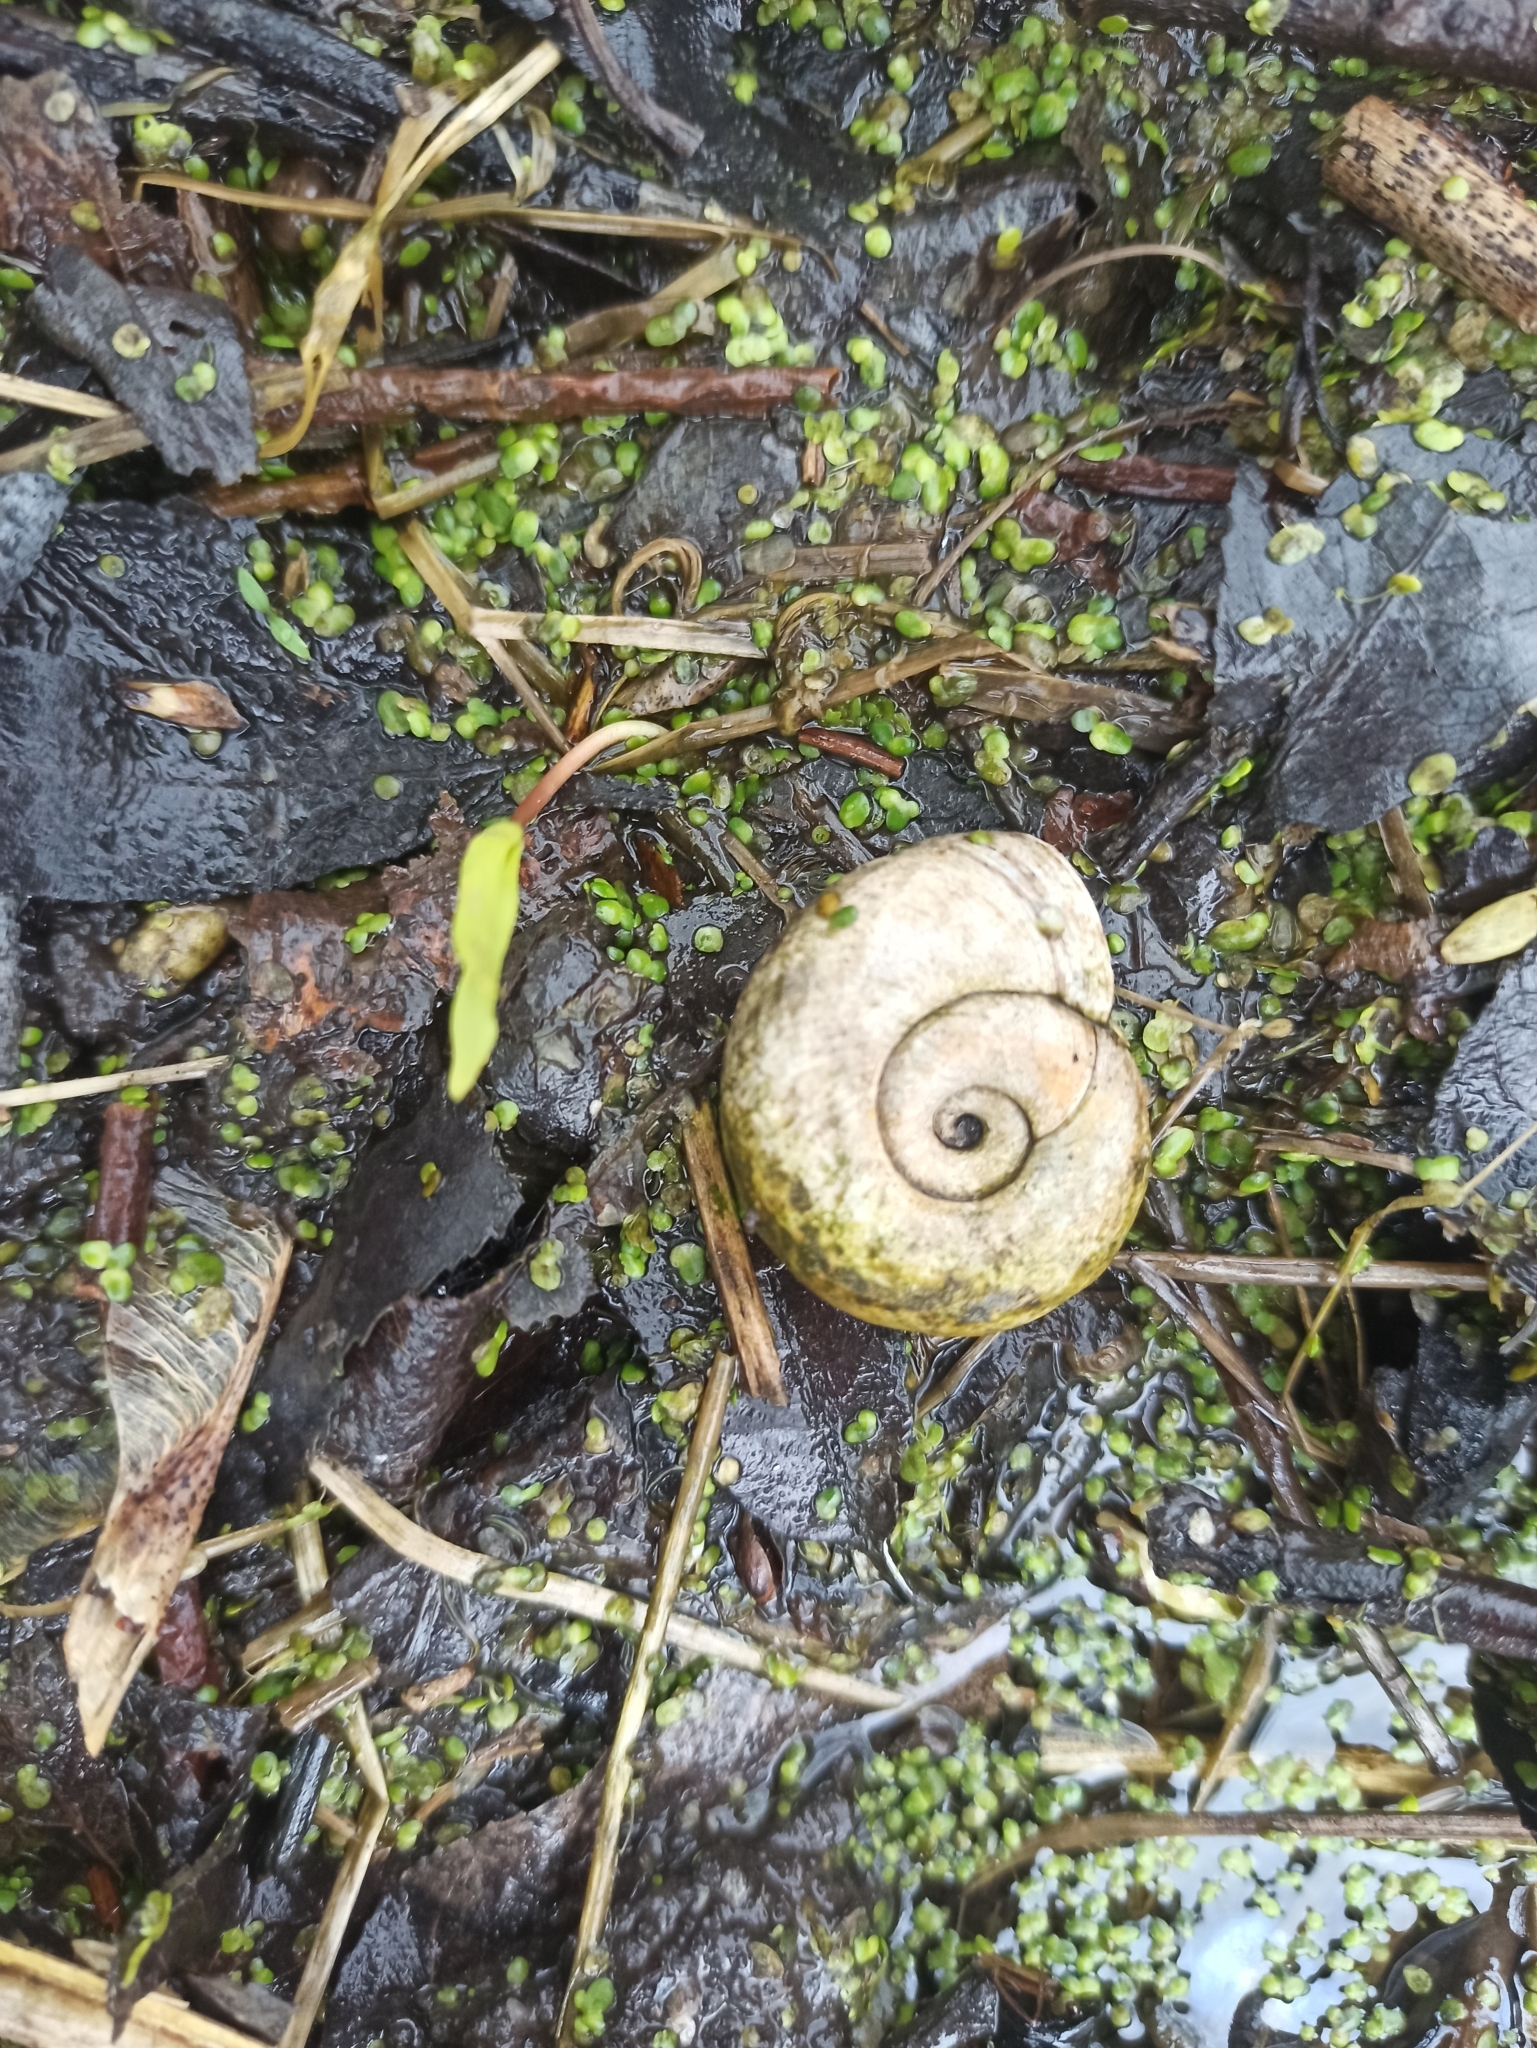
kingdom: Animalia
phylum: Mollusca
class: Gastropoda
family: Planorbidae
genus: Planorbarius
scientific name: Planorbarius corneus
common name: Great ramshorn
